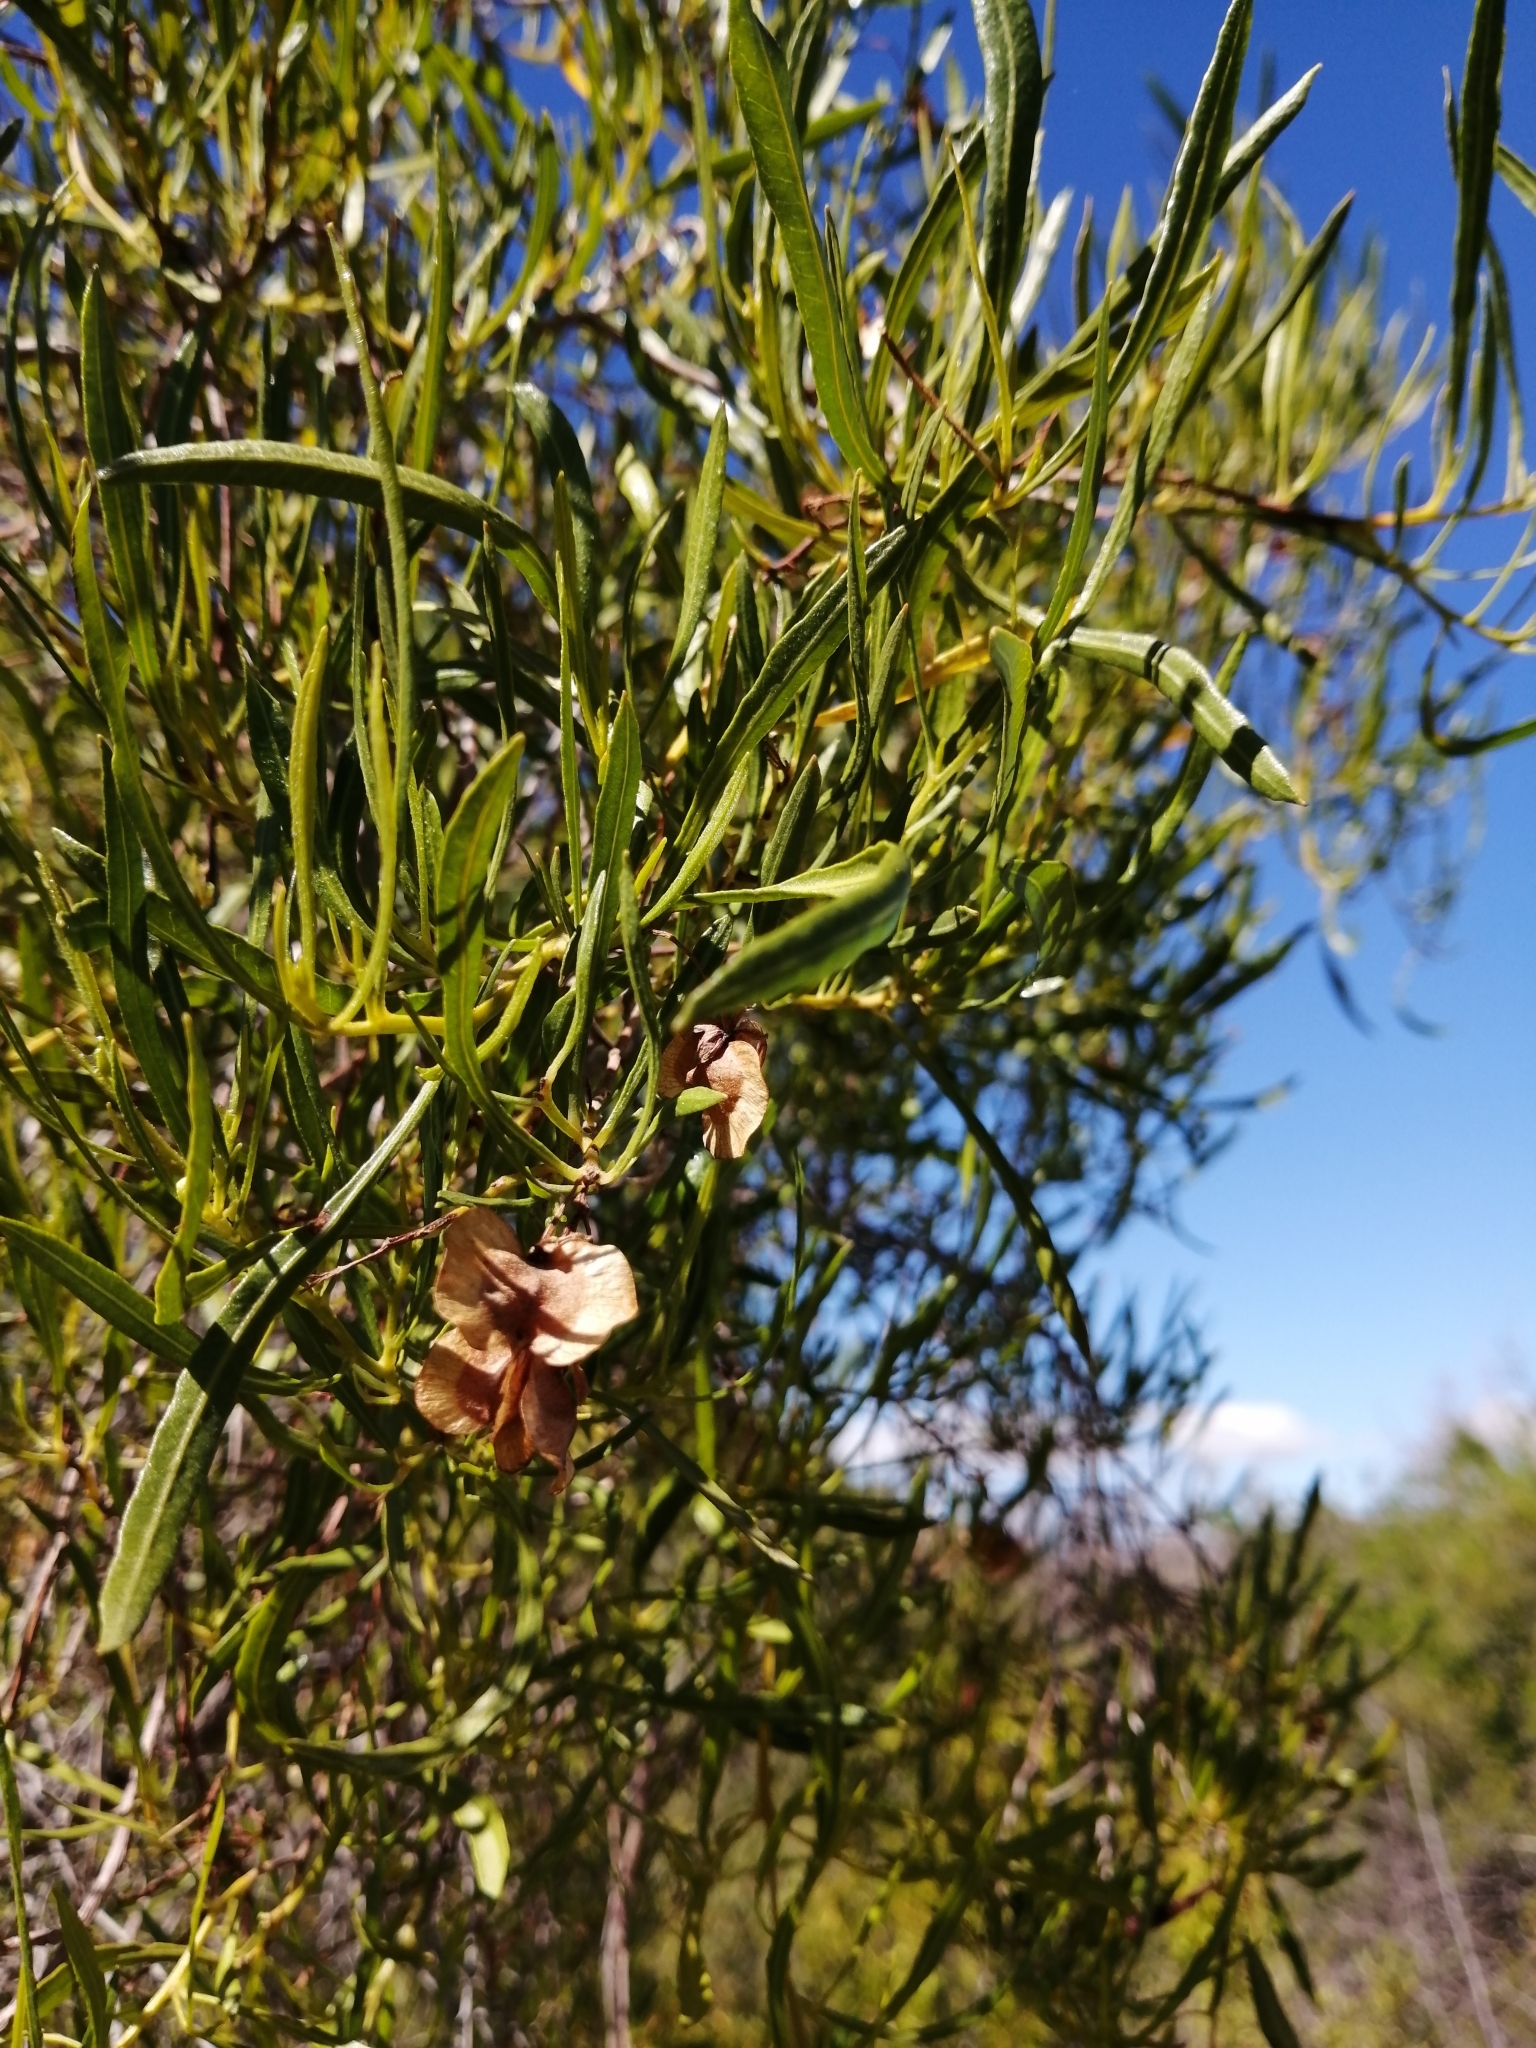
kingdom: Plantae
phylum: Tracheophyta
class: Magnoliopsida
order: Sapindales
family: Sapindaceae
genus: Dodonaea
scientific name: Dodonaea viscosa
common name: Hopbush
